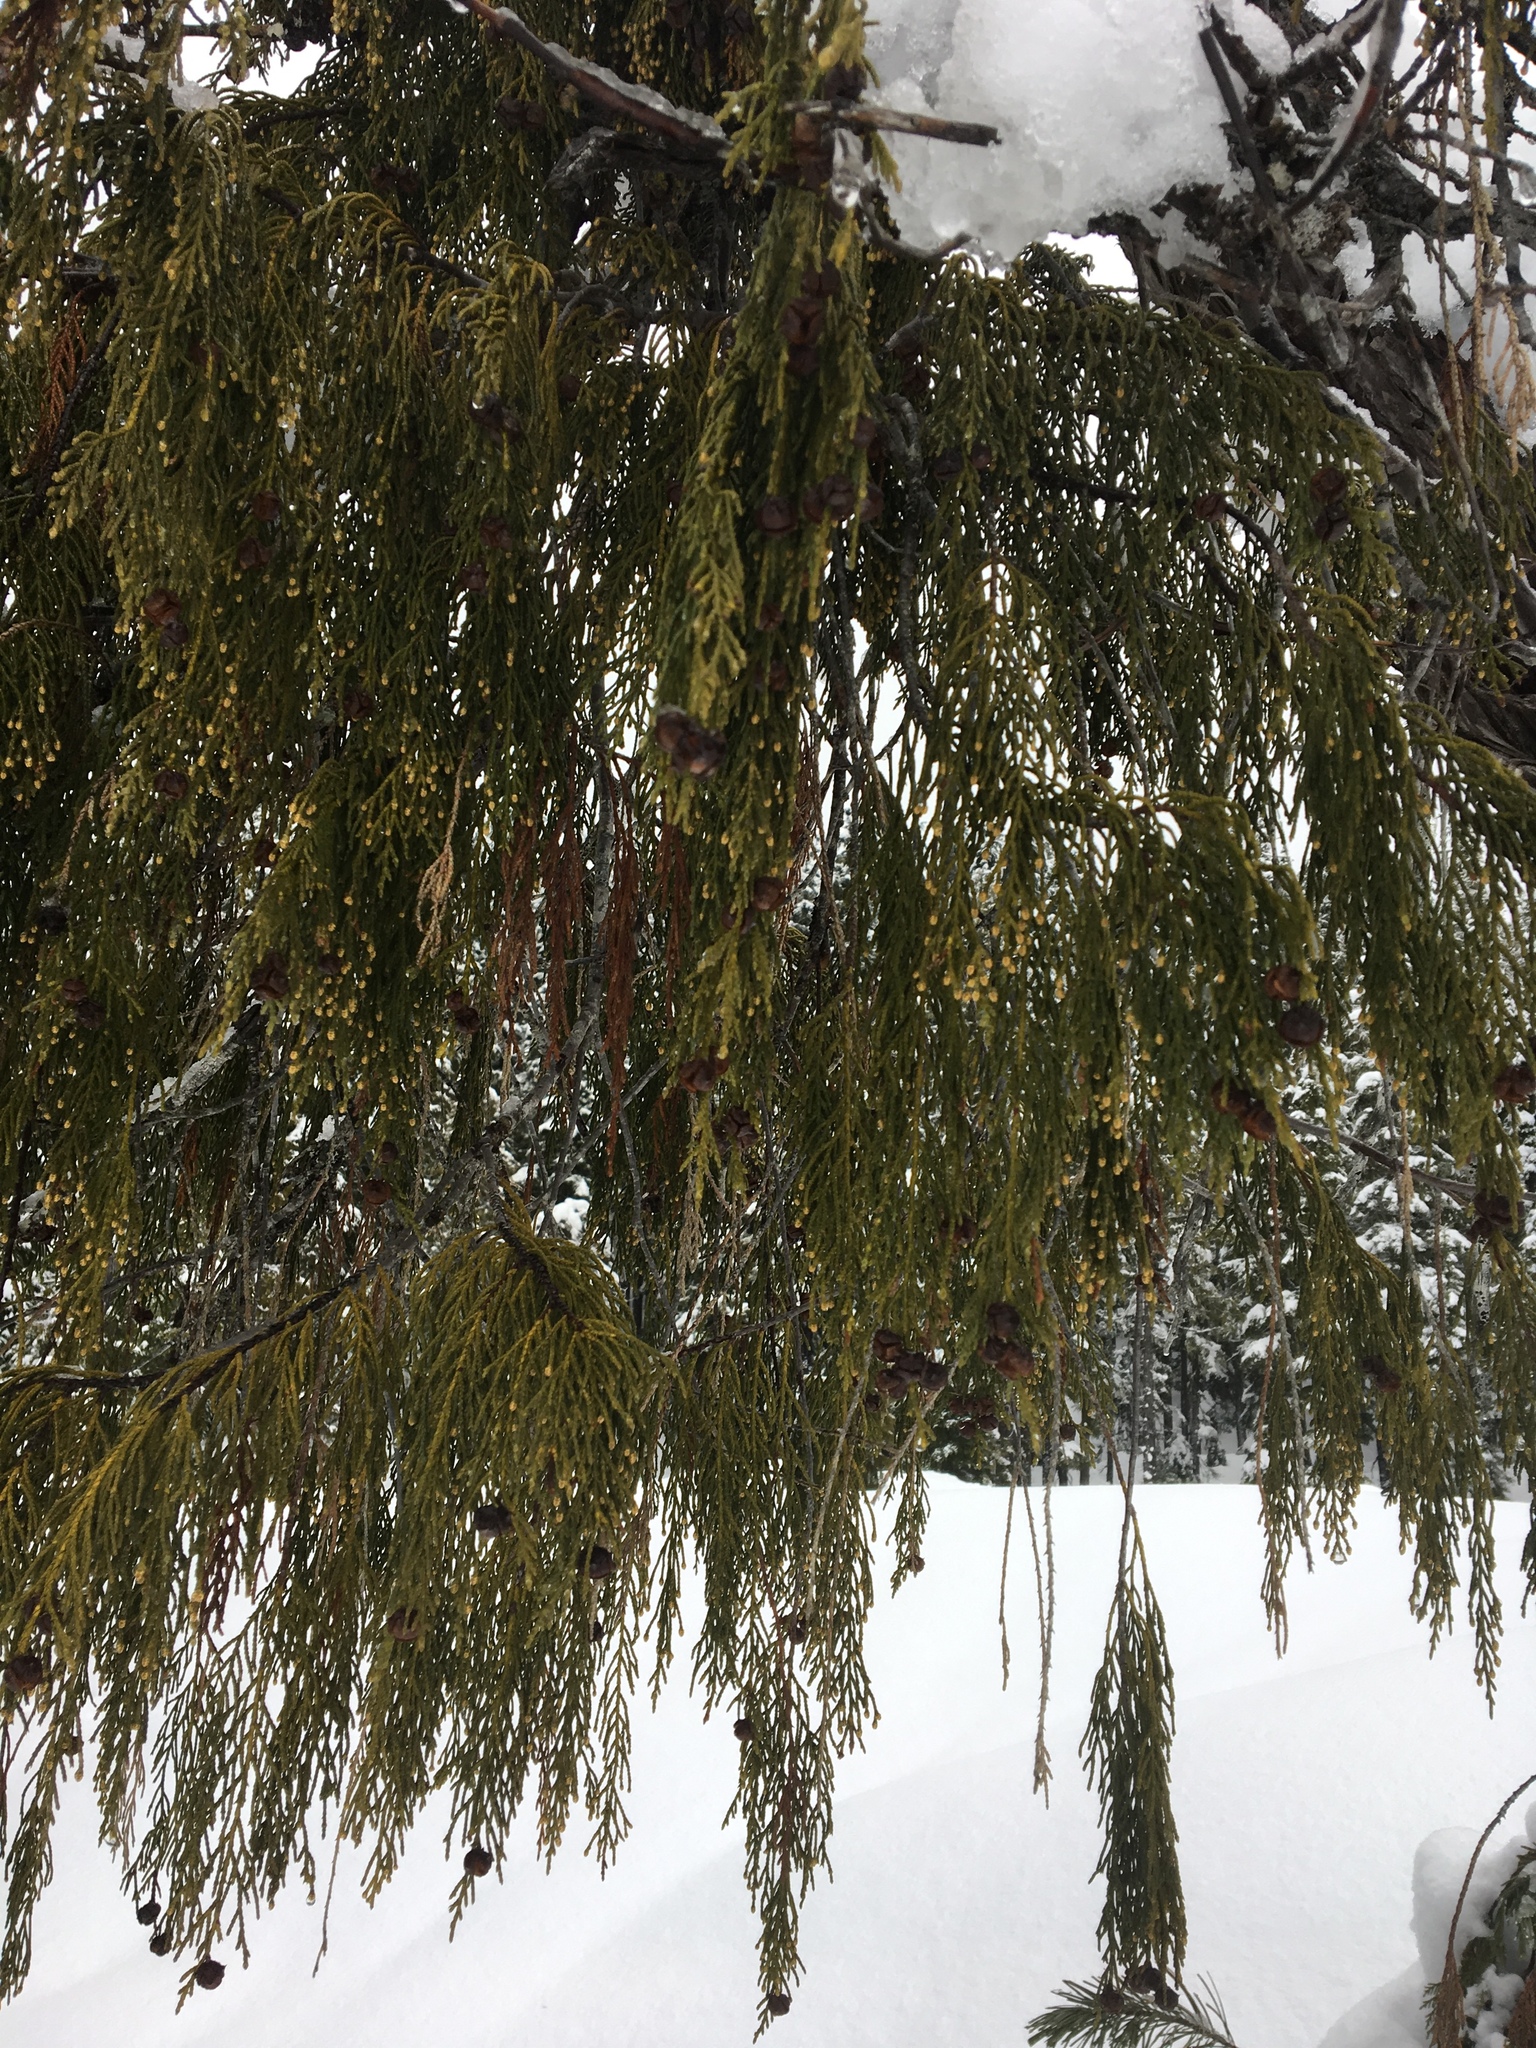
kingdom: Plantae
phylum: Tracheophyta
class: Pinopsida
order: Pinales
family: Cupressaceae
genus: Xanthocyparis
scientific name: Xanthocyparis nootkatensis
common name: Nootka cypress
